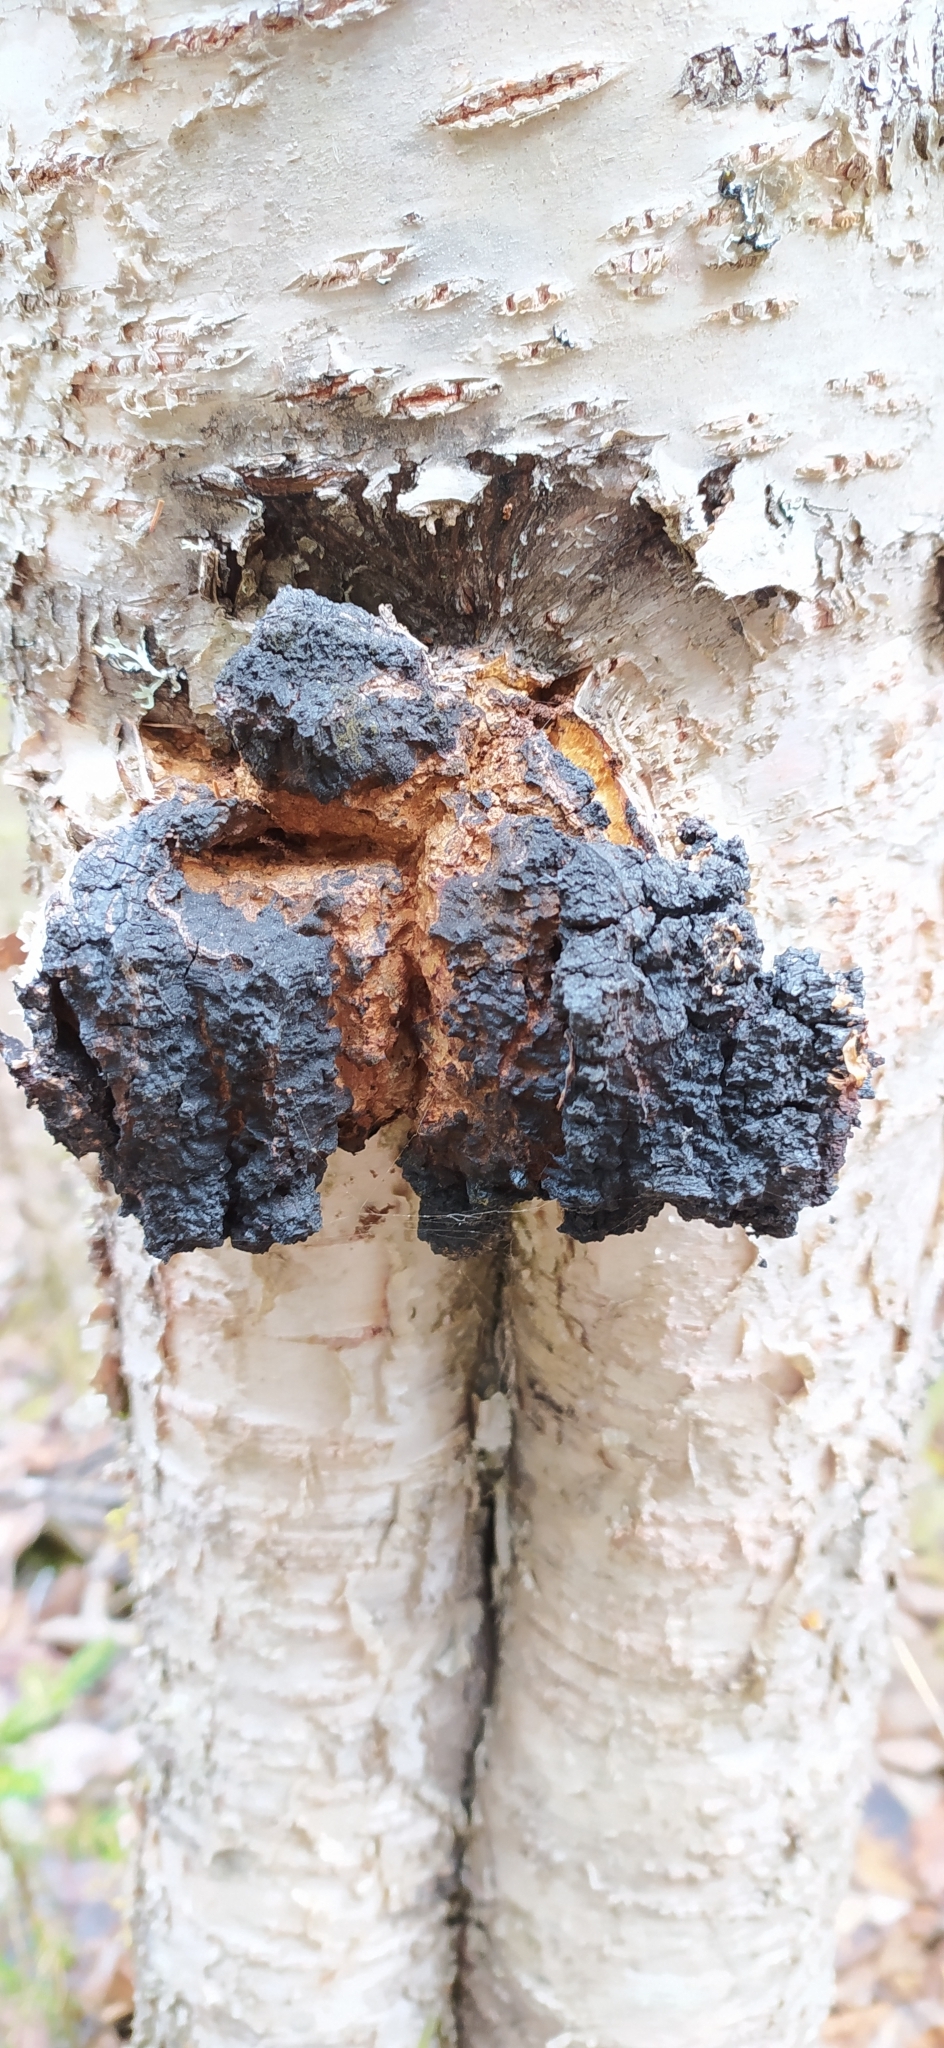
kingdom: Fungi
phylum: Basidiomycota
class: Agaricomycetes
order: Hymenochaetales
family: Hymenochaetaceae
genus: Inonotus
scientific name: Inonotus obliquus
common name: Chaga
